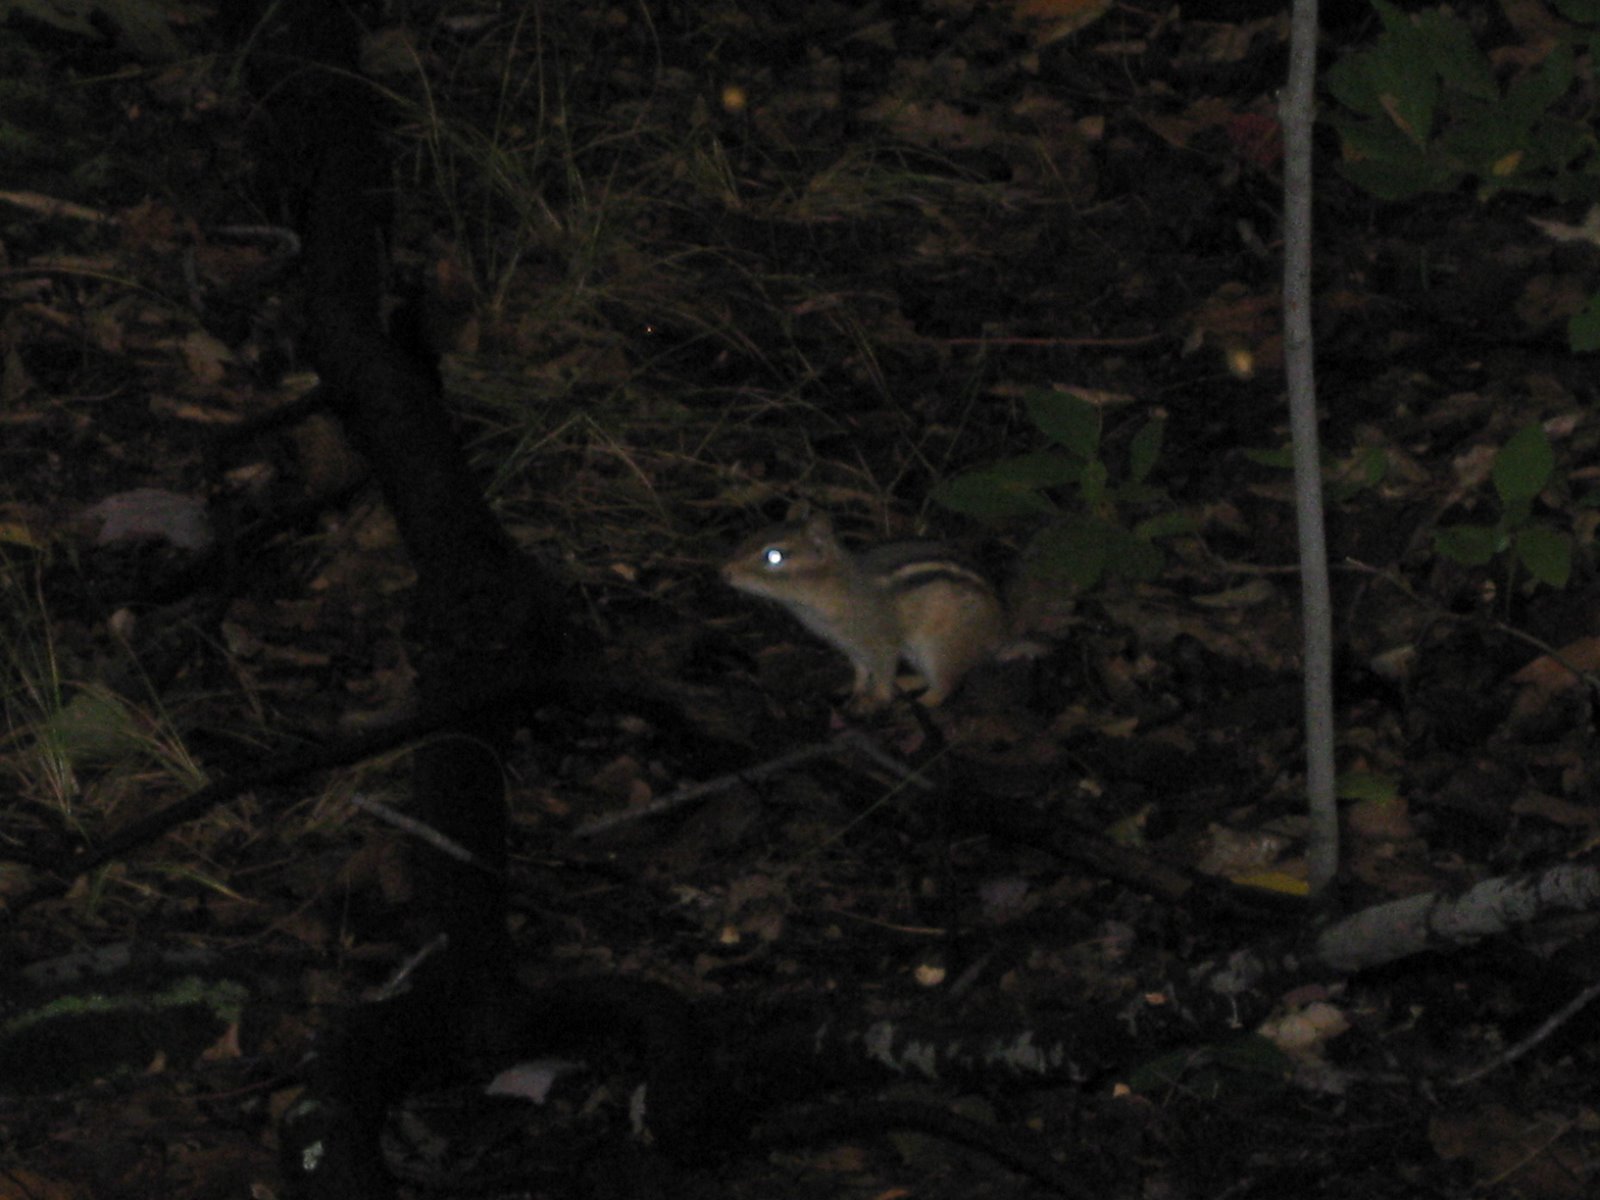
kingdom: Animalia
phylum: Chordata
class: Mammalia
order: Rodentia
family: Sciuridae
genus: Tamias
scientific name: Tamias striatus
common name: Eastern chipmunk
